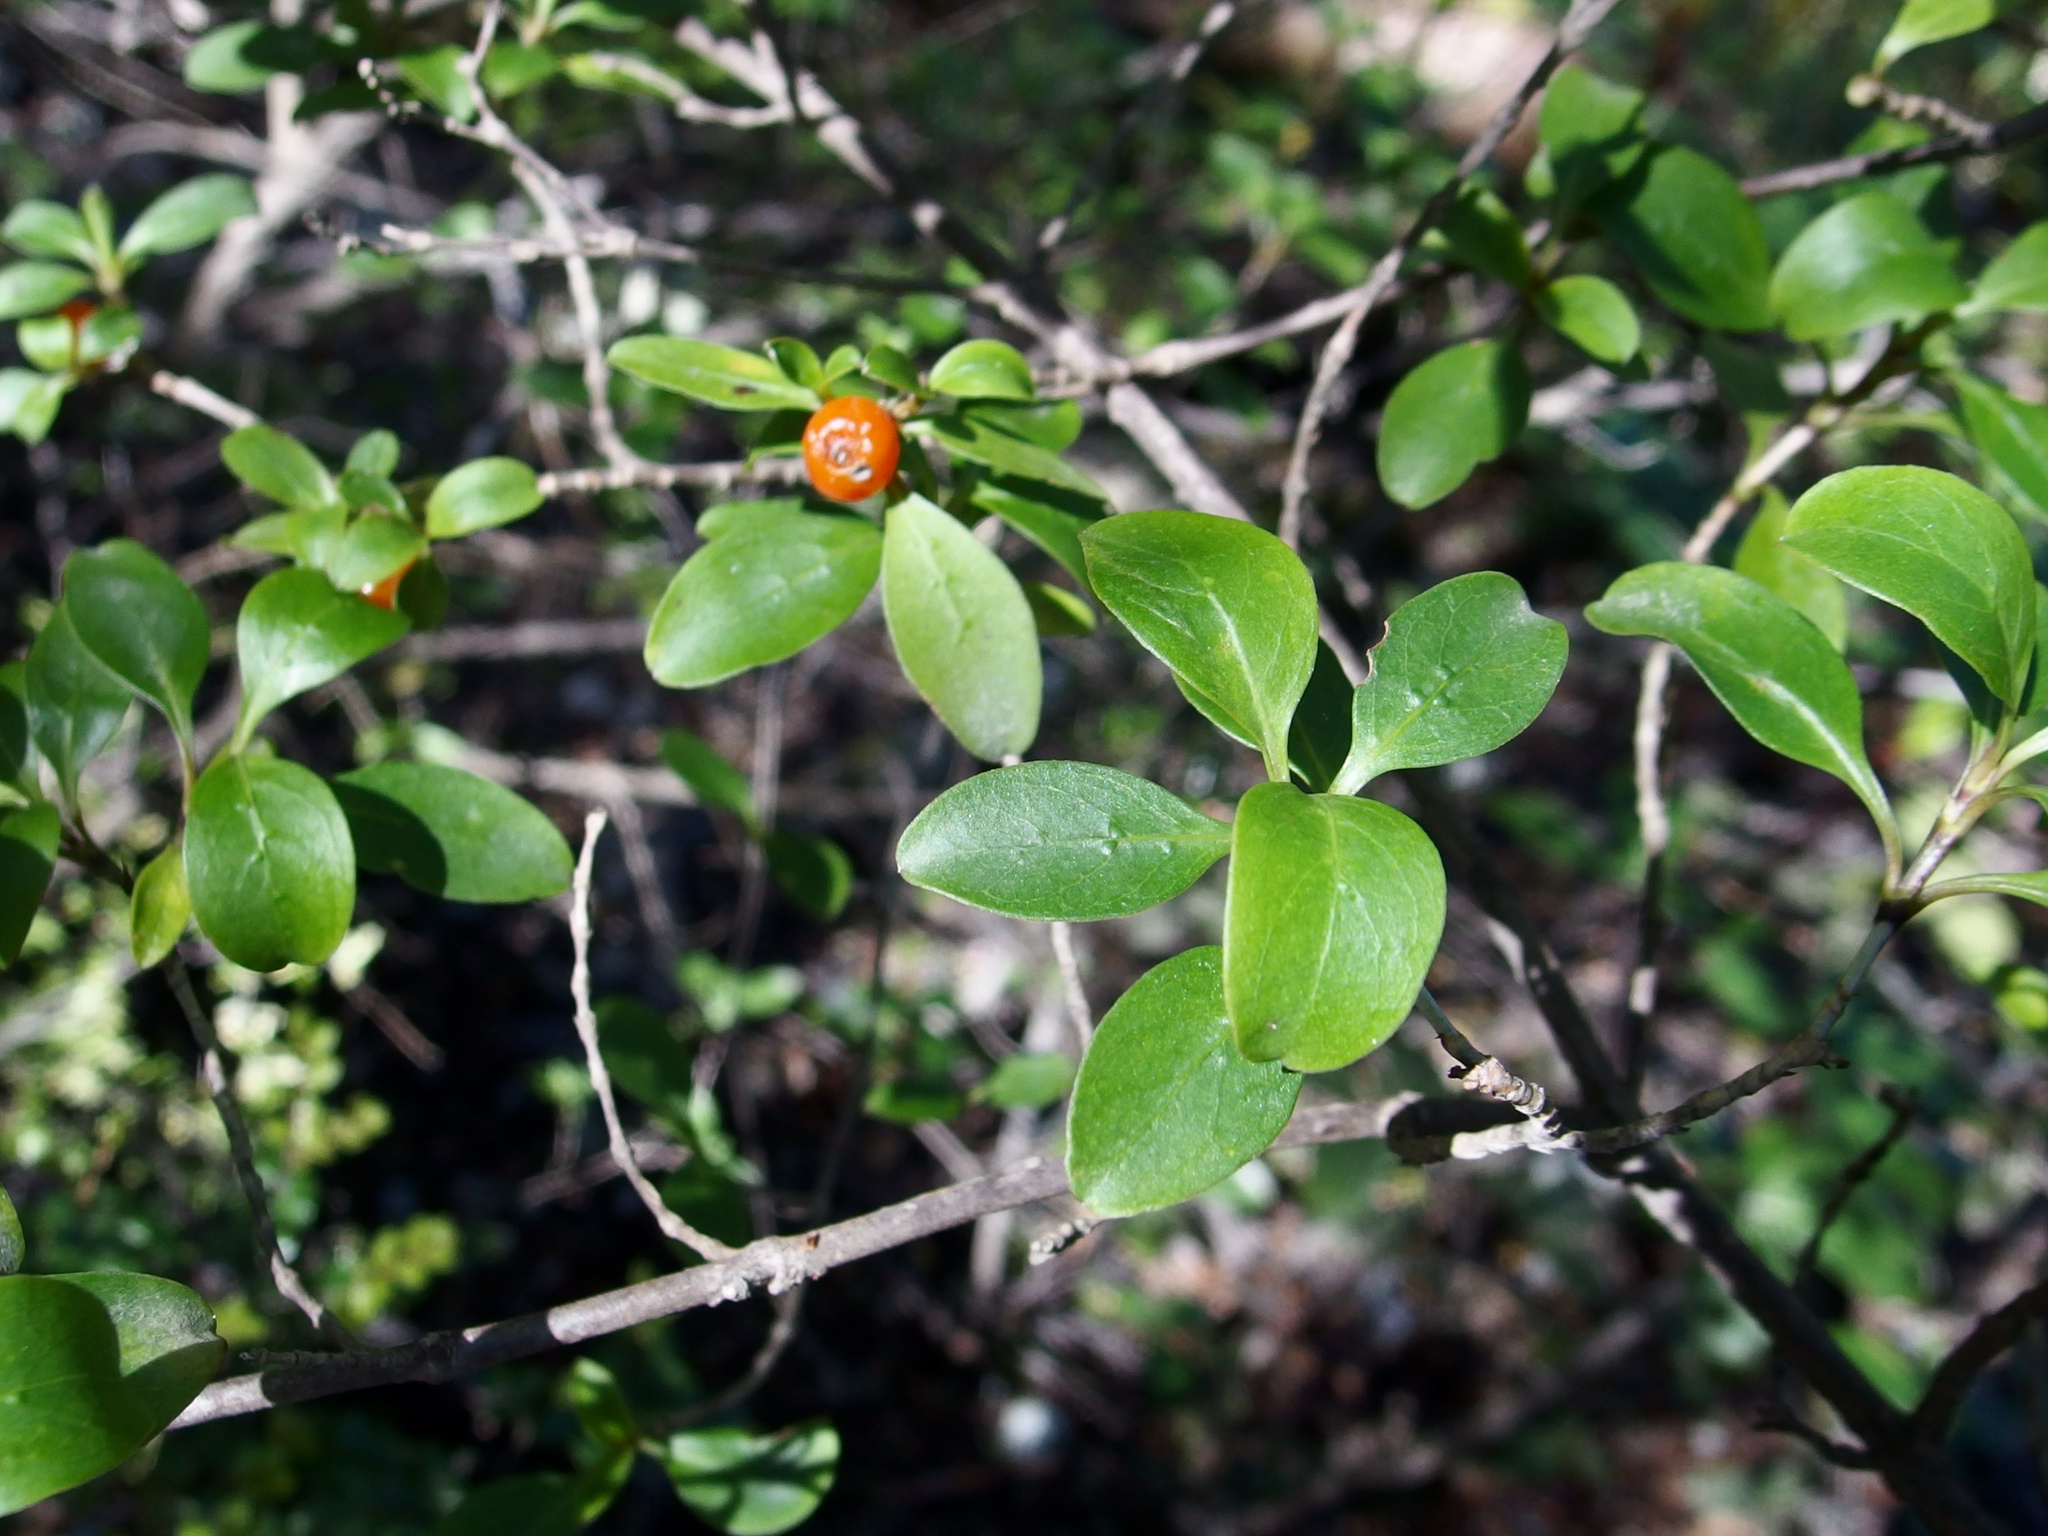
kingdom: Plantae
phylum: Tracheophyta
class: Magnoliopsida
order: Gentianales
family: Rubiaceae
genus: Coprosma
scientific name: Coprosma foetidissima
